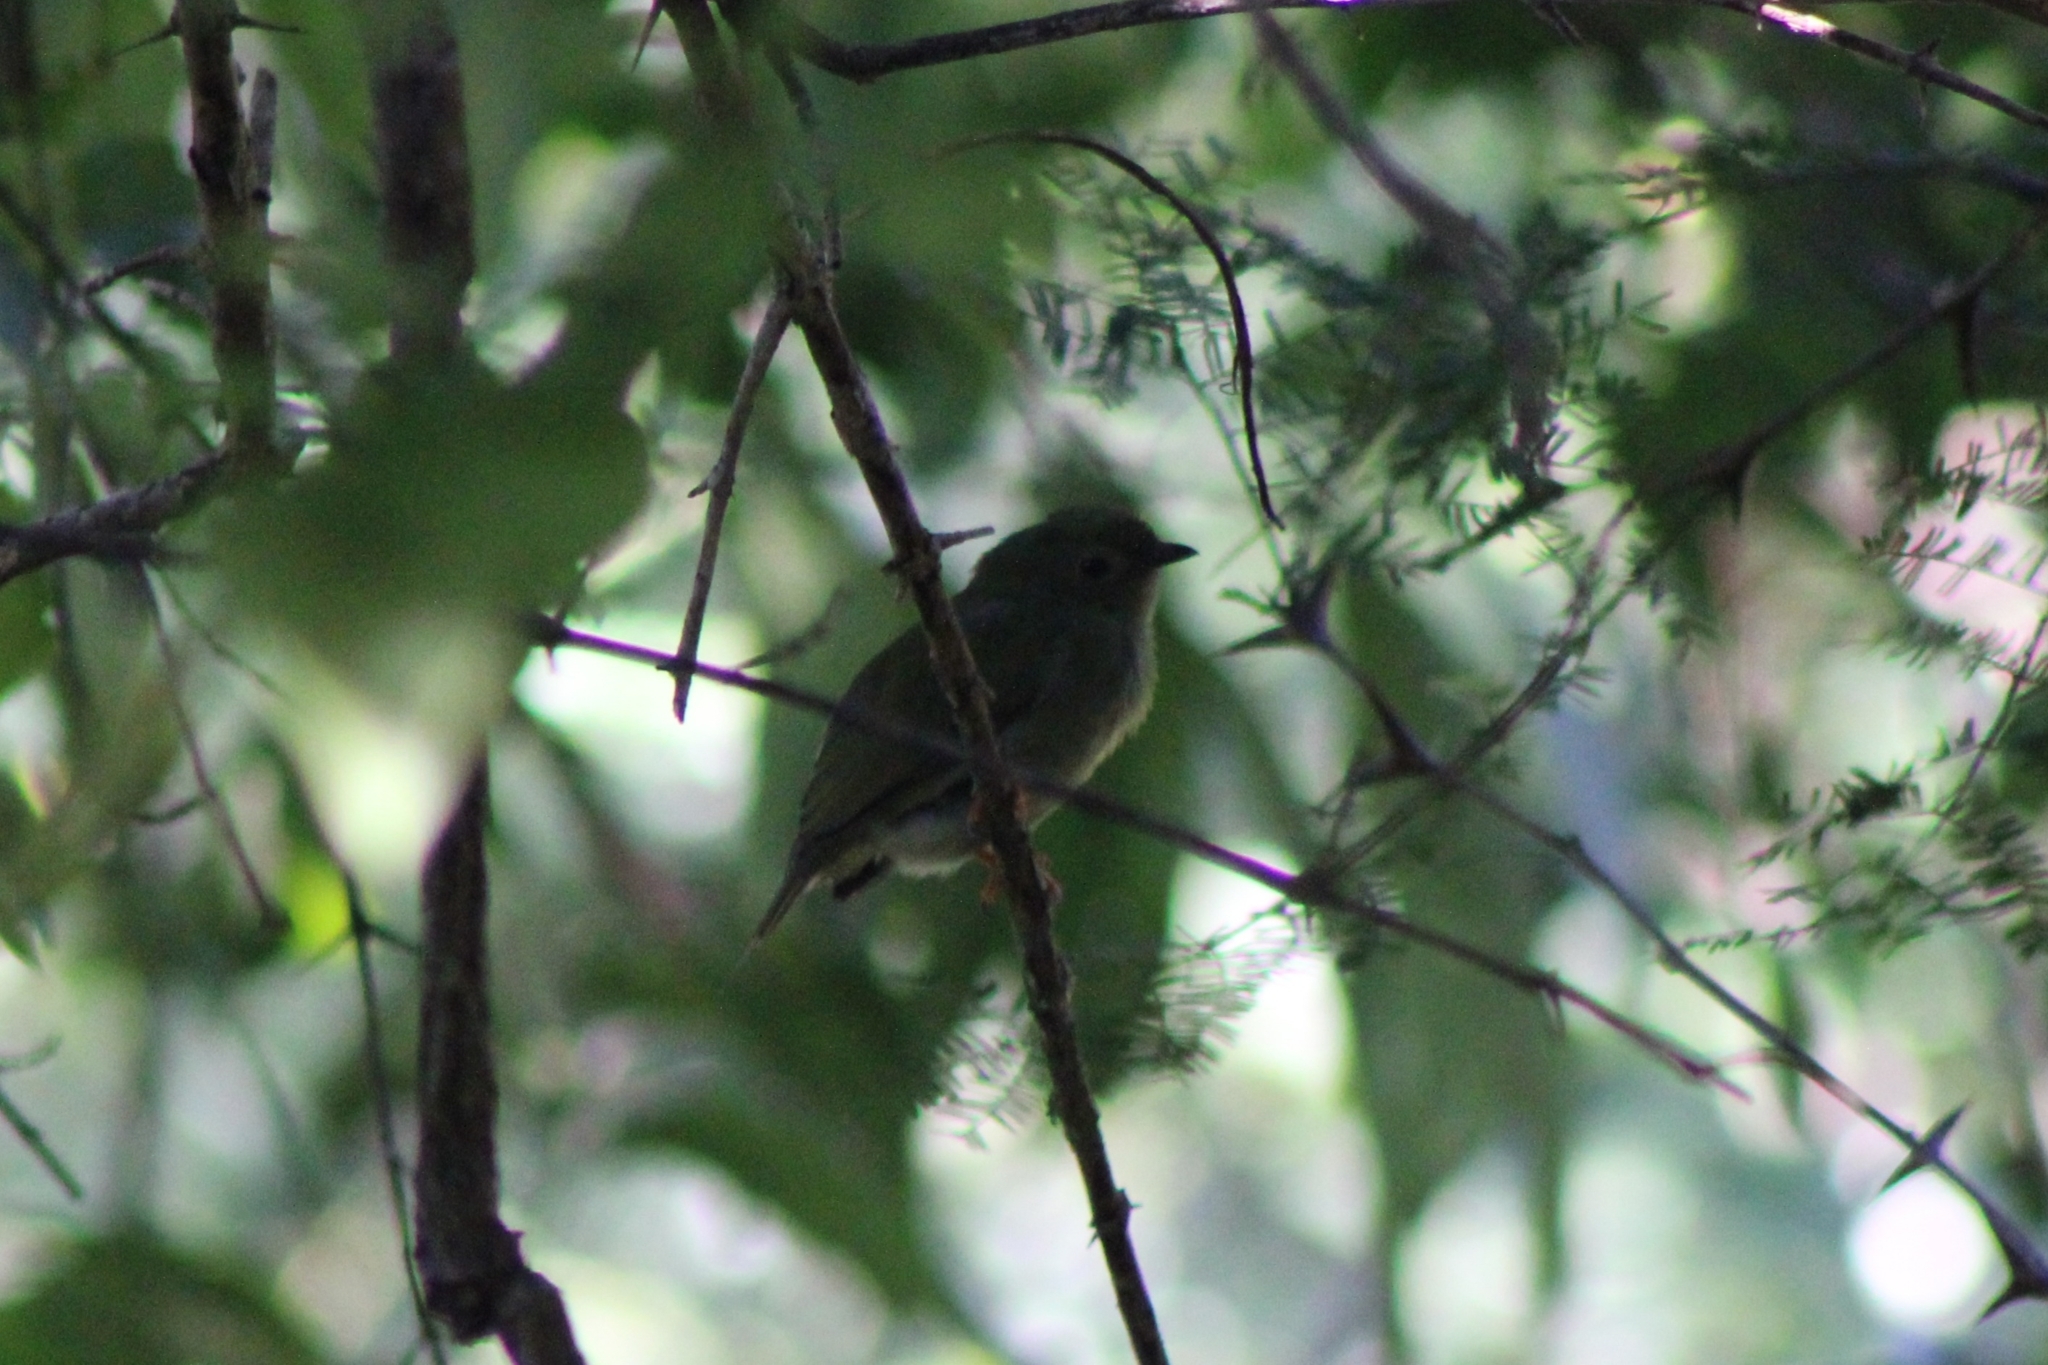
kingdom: Animalia
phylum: Chordata
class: Aves
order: Passeriformes
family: Pipridae
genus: Chiroxiphia
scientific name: Chiroxiphia lanceolata
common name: Lance-tailed manakin
